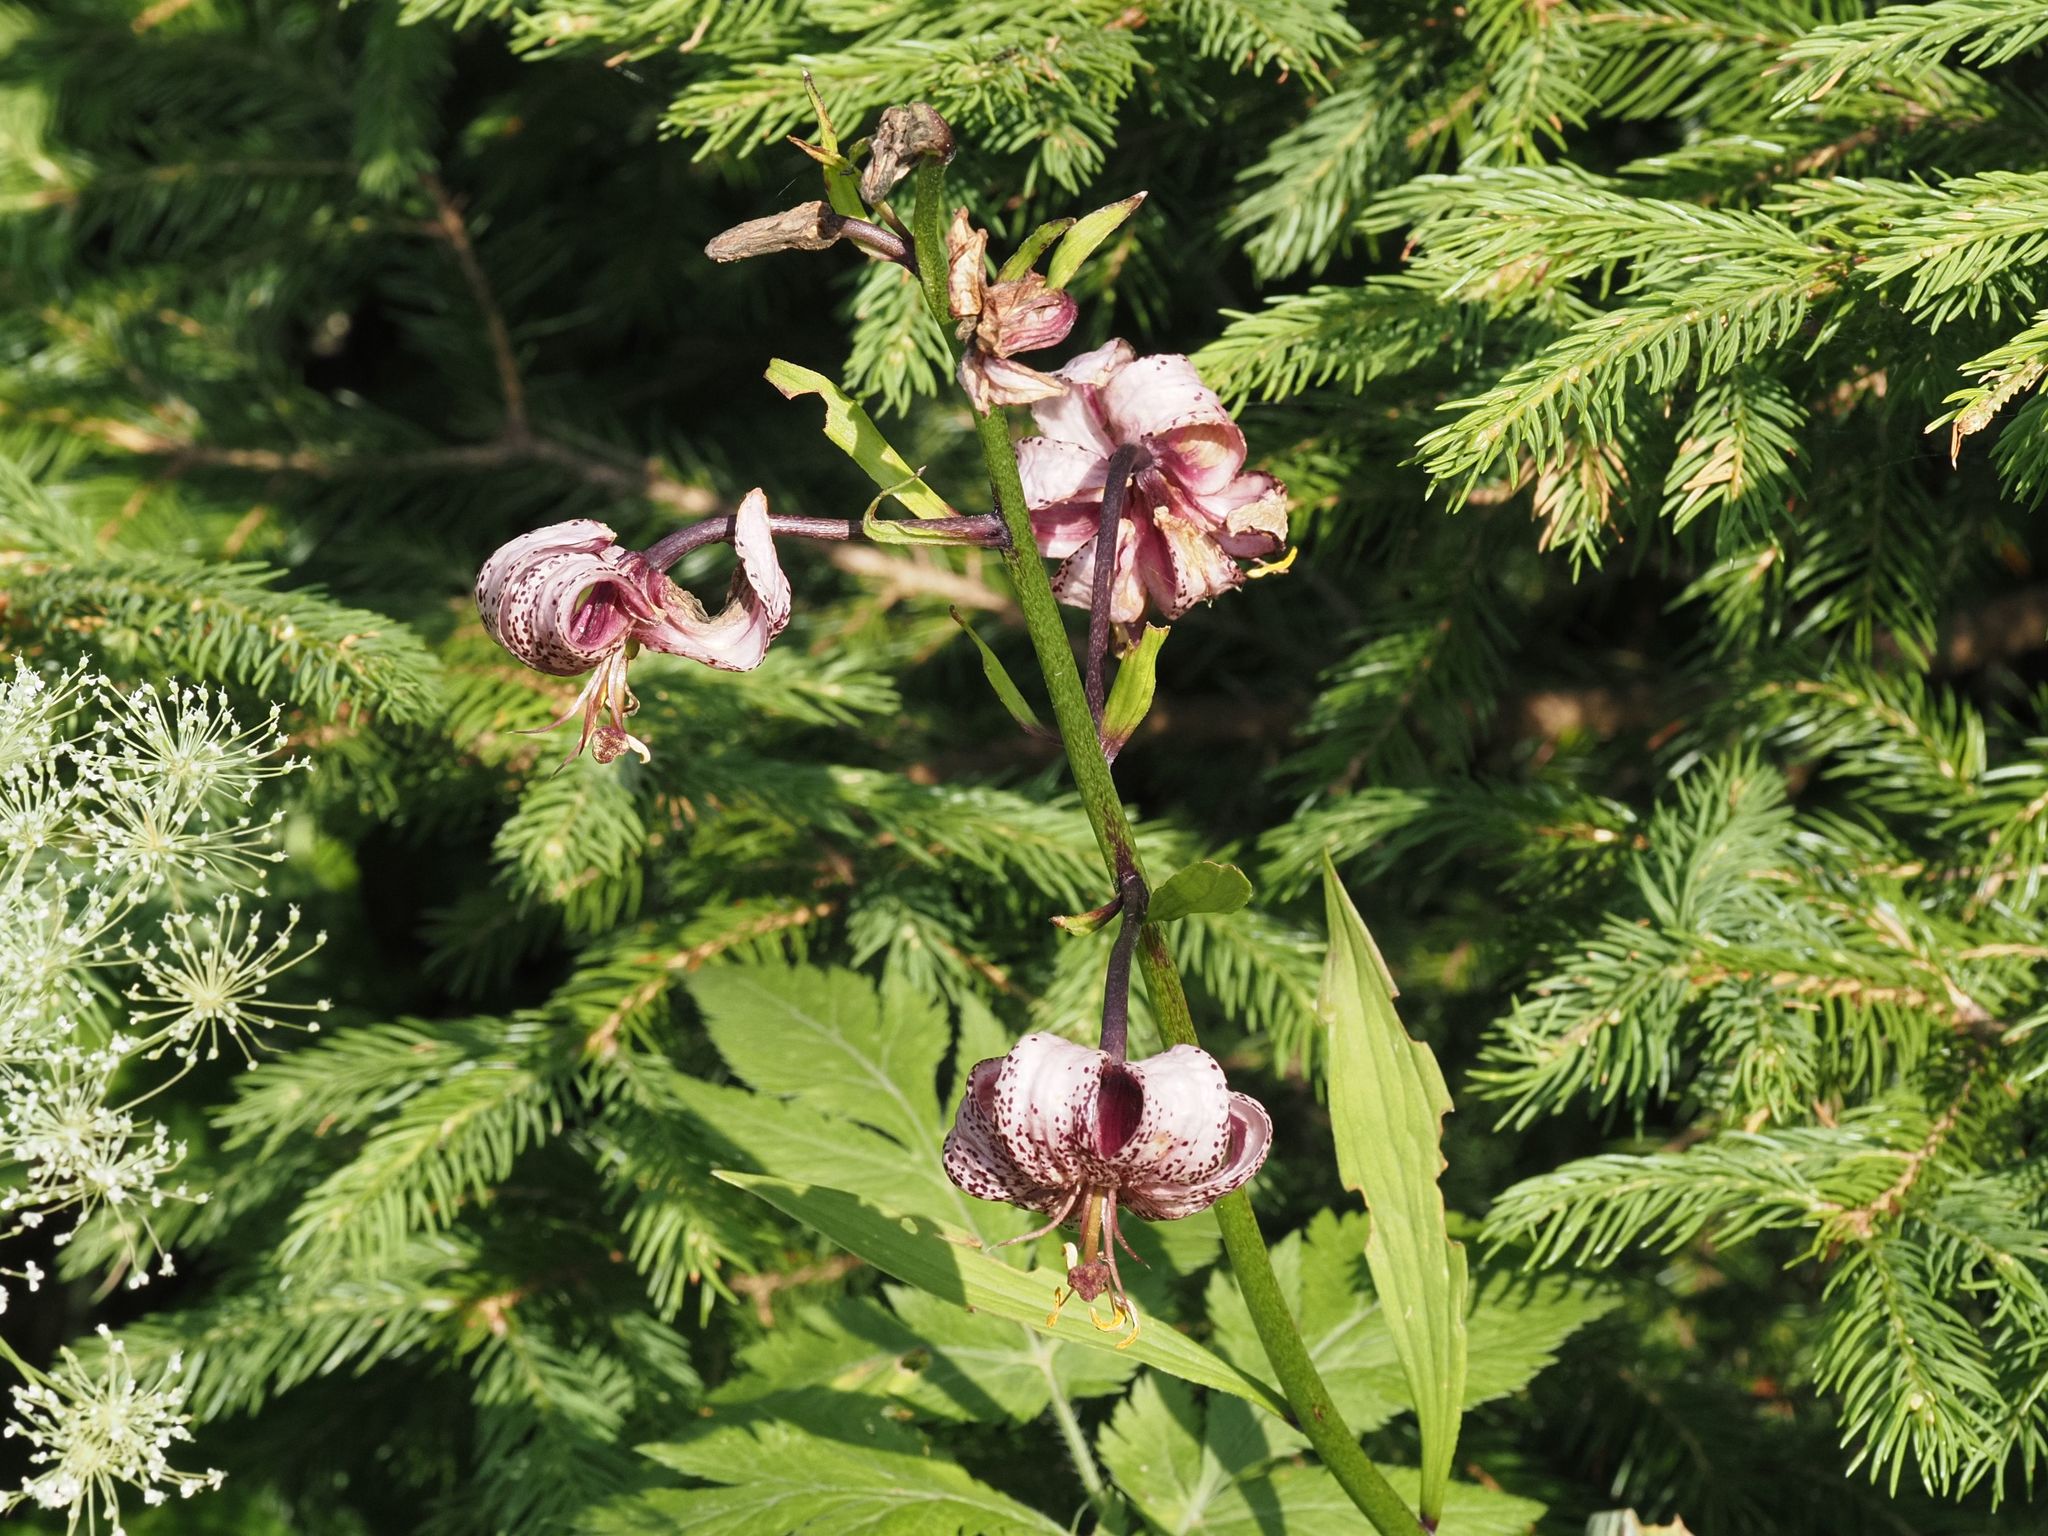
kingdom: Plantae
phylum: Tracheophyta
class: Liliopsida
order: Liliales
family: Liliaceae
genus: Lilium
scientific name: Lilium martagon
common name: Martagon lily
